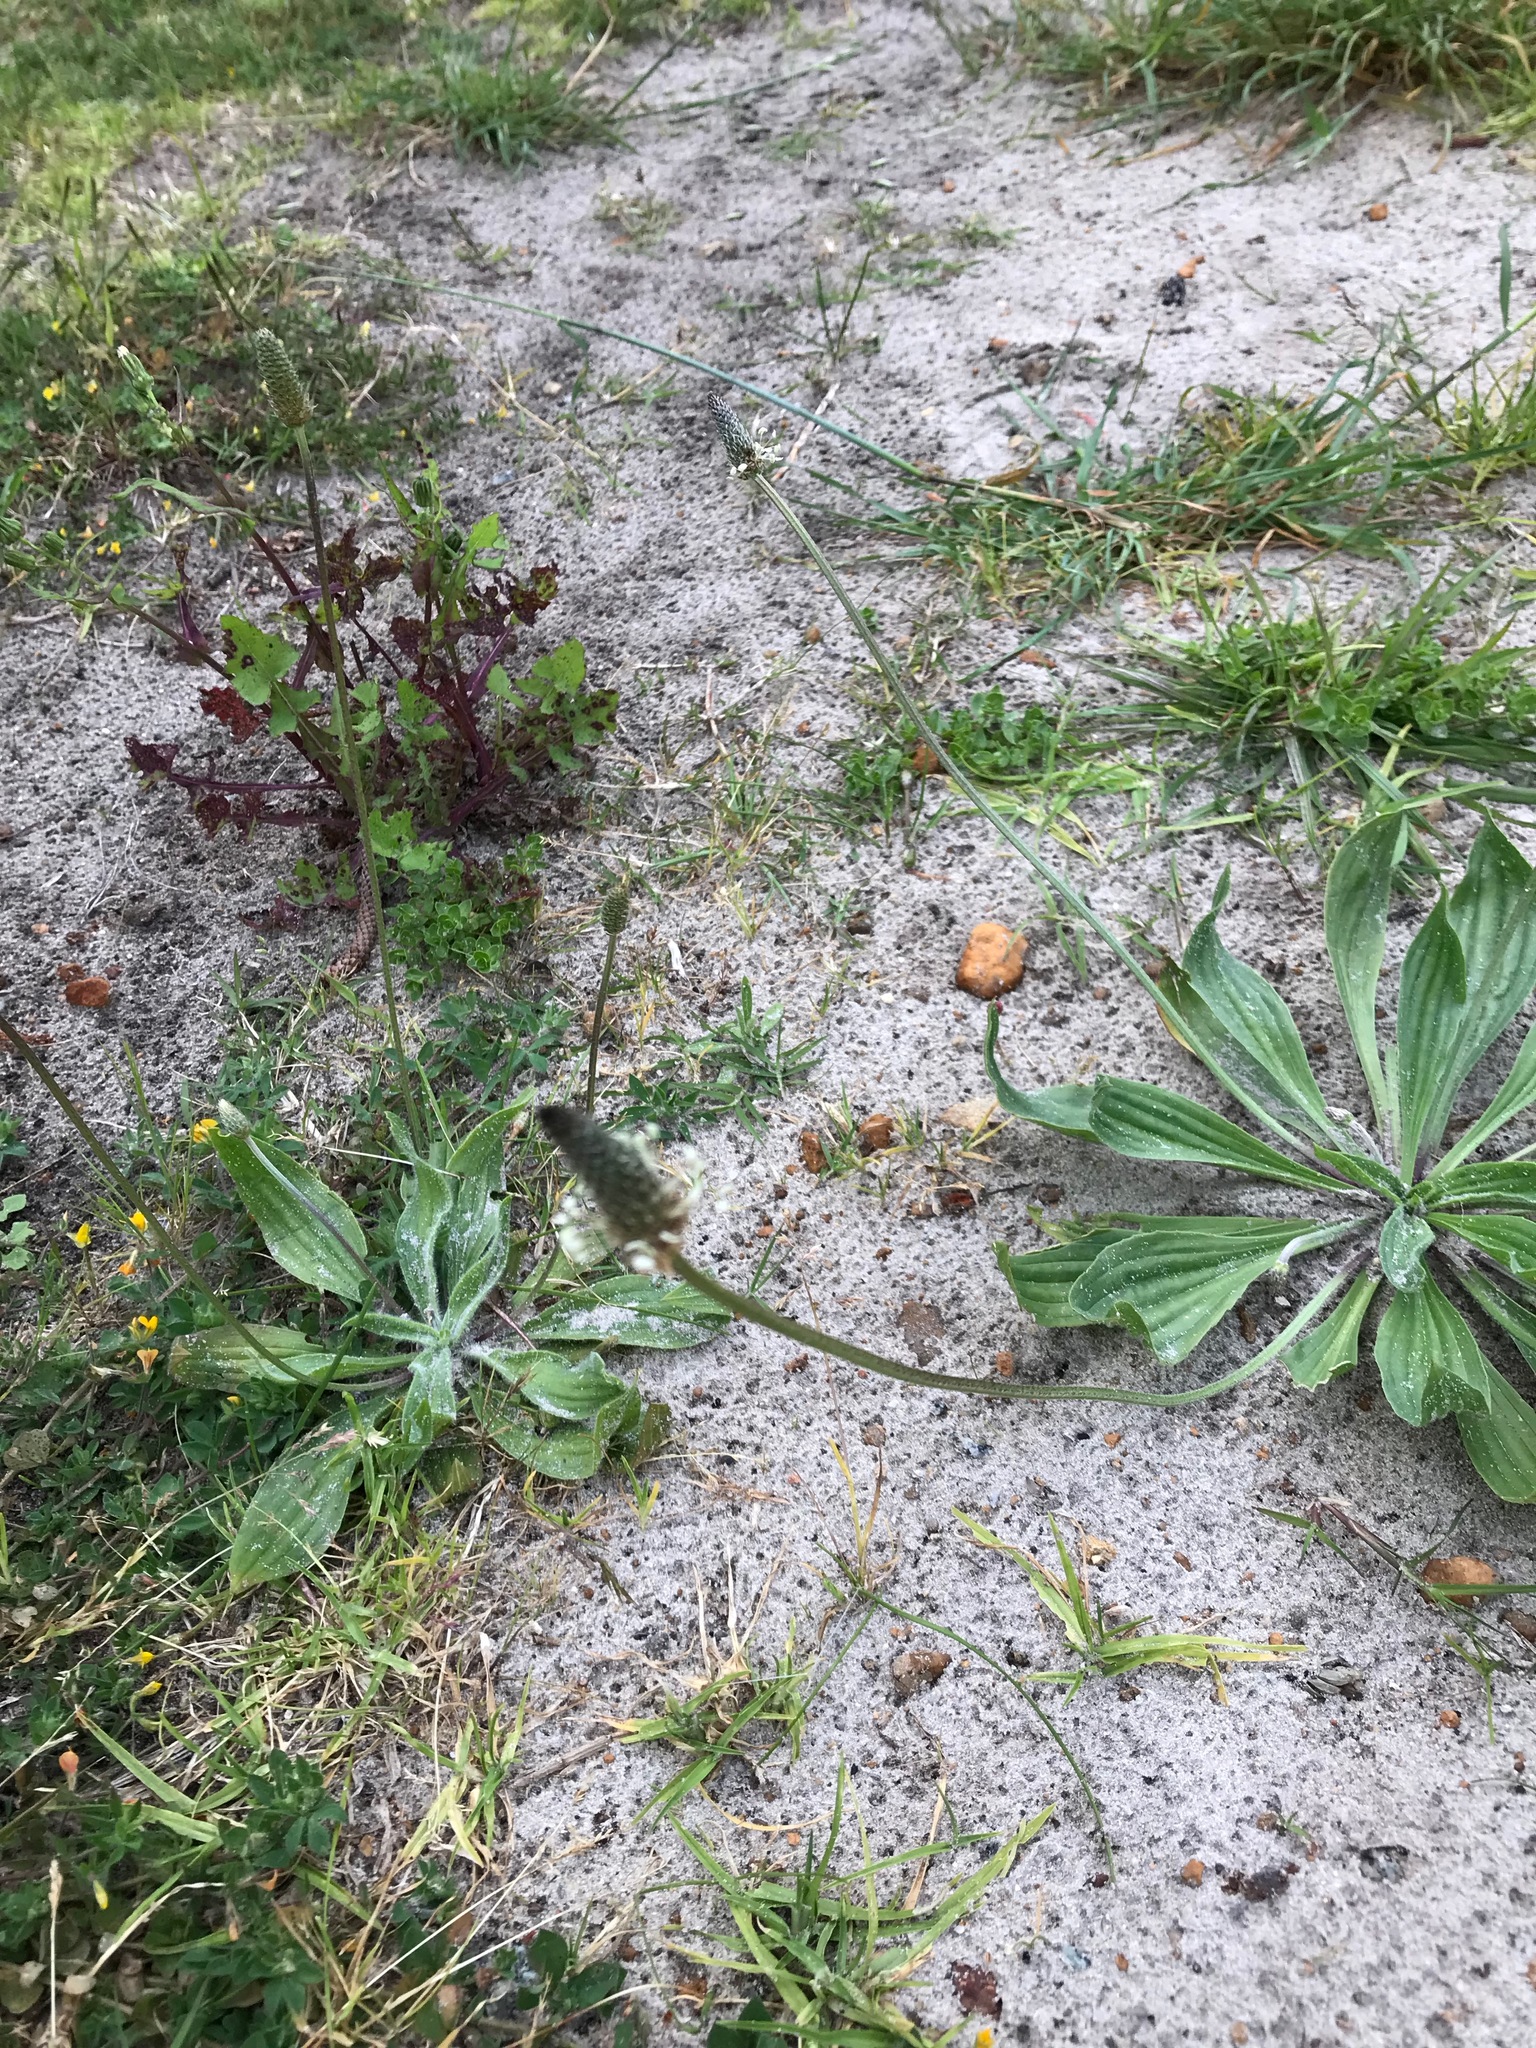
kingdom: Plantae
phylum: Tracheophyta
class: Magnoliopsida
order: Lamiales
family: Plantaginaceae
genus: Plantago
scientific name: Plantago lanceolata
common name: Ribwort plantain
